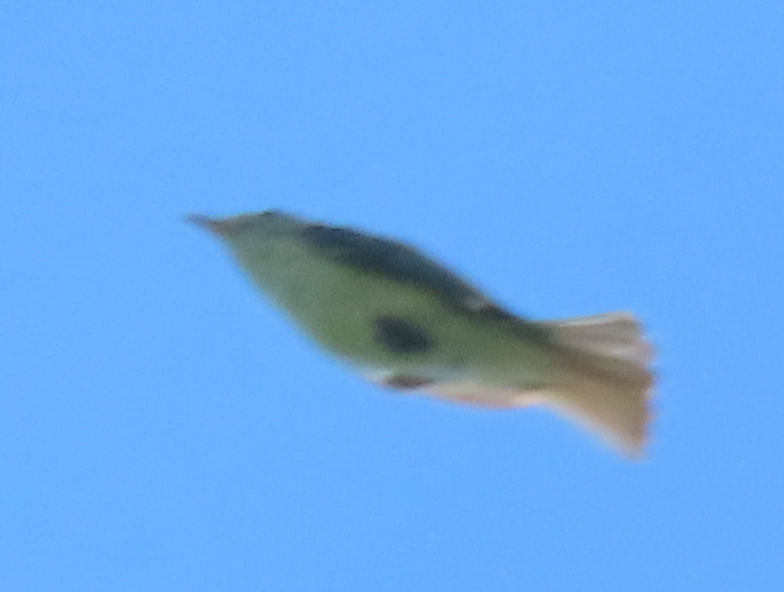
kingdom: Animalia
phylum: Chordata
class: Aves
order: Passeriformes
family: Tyrannidae
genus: Myiarchus
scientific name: Myiarchus crinitus
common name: Great crested flycatcher
